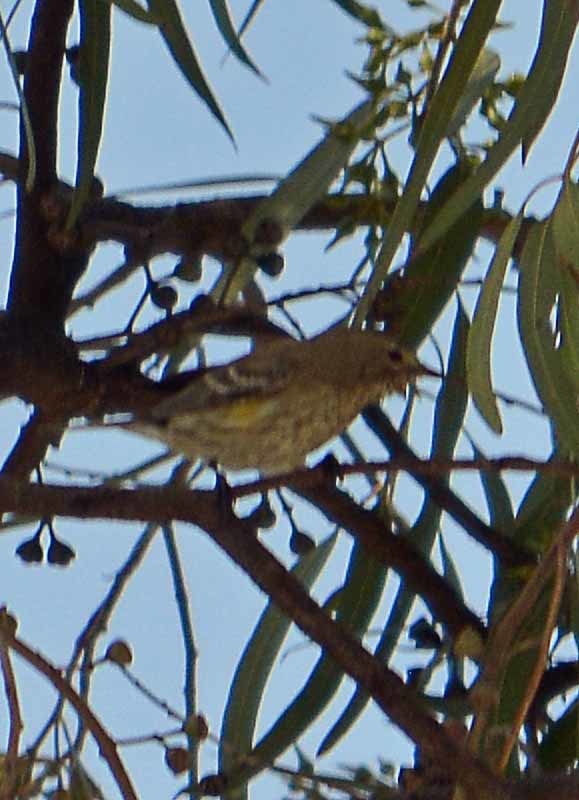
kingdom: Animalia
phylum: Chordata
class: Aves
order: Passeriformes
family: Parulidae
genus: Setophaga
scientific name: Setophaga coronata
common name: Myrtle warbler
